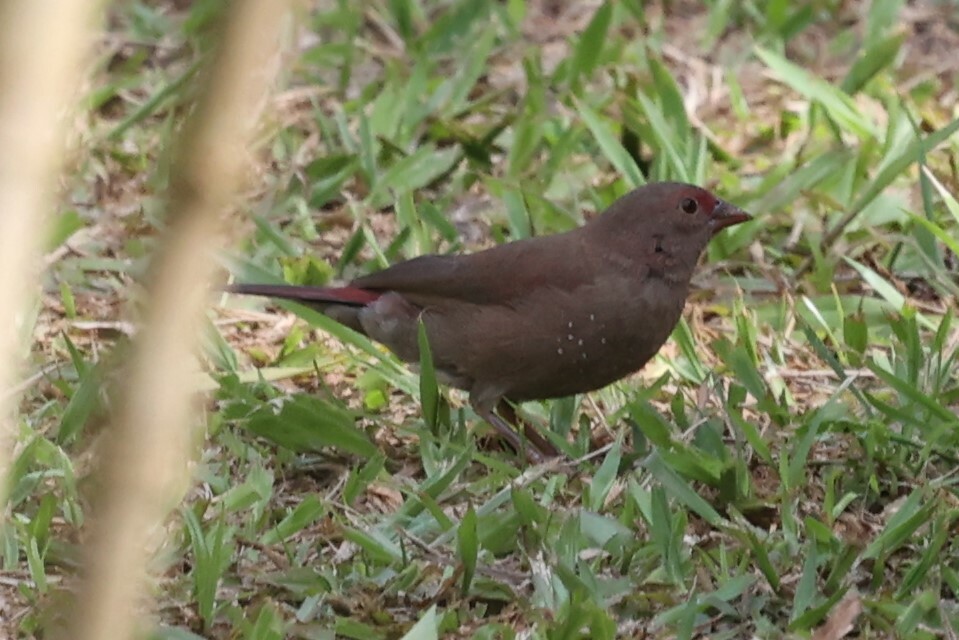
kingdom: Animalia
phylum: Chordata
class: Aves
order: Passeriformes
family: Estrildidae
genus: Lagonosticta
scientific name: Lagonosticta senegala
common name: Red-billed firefinch
